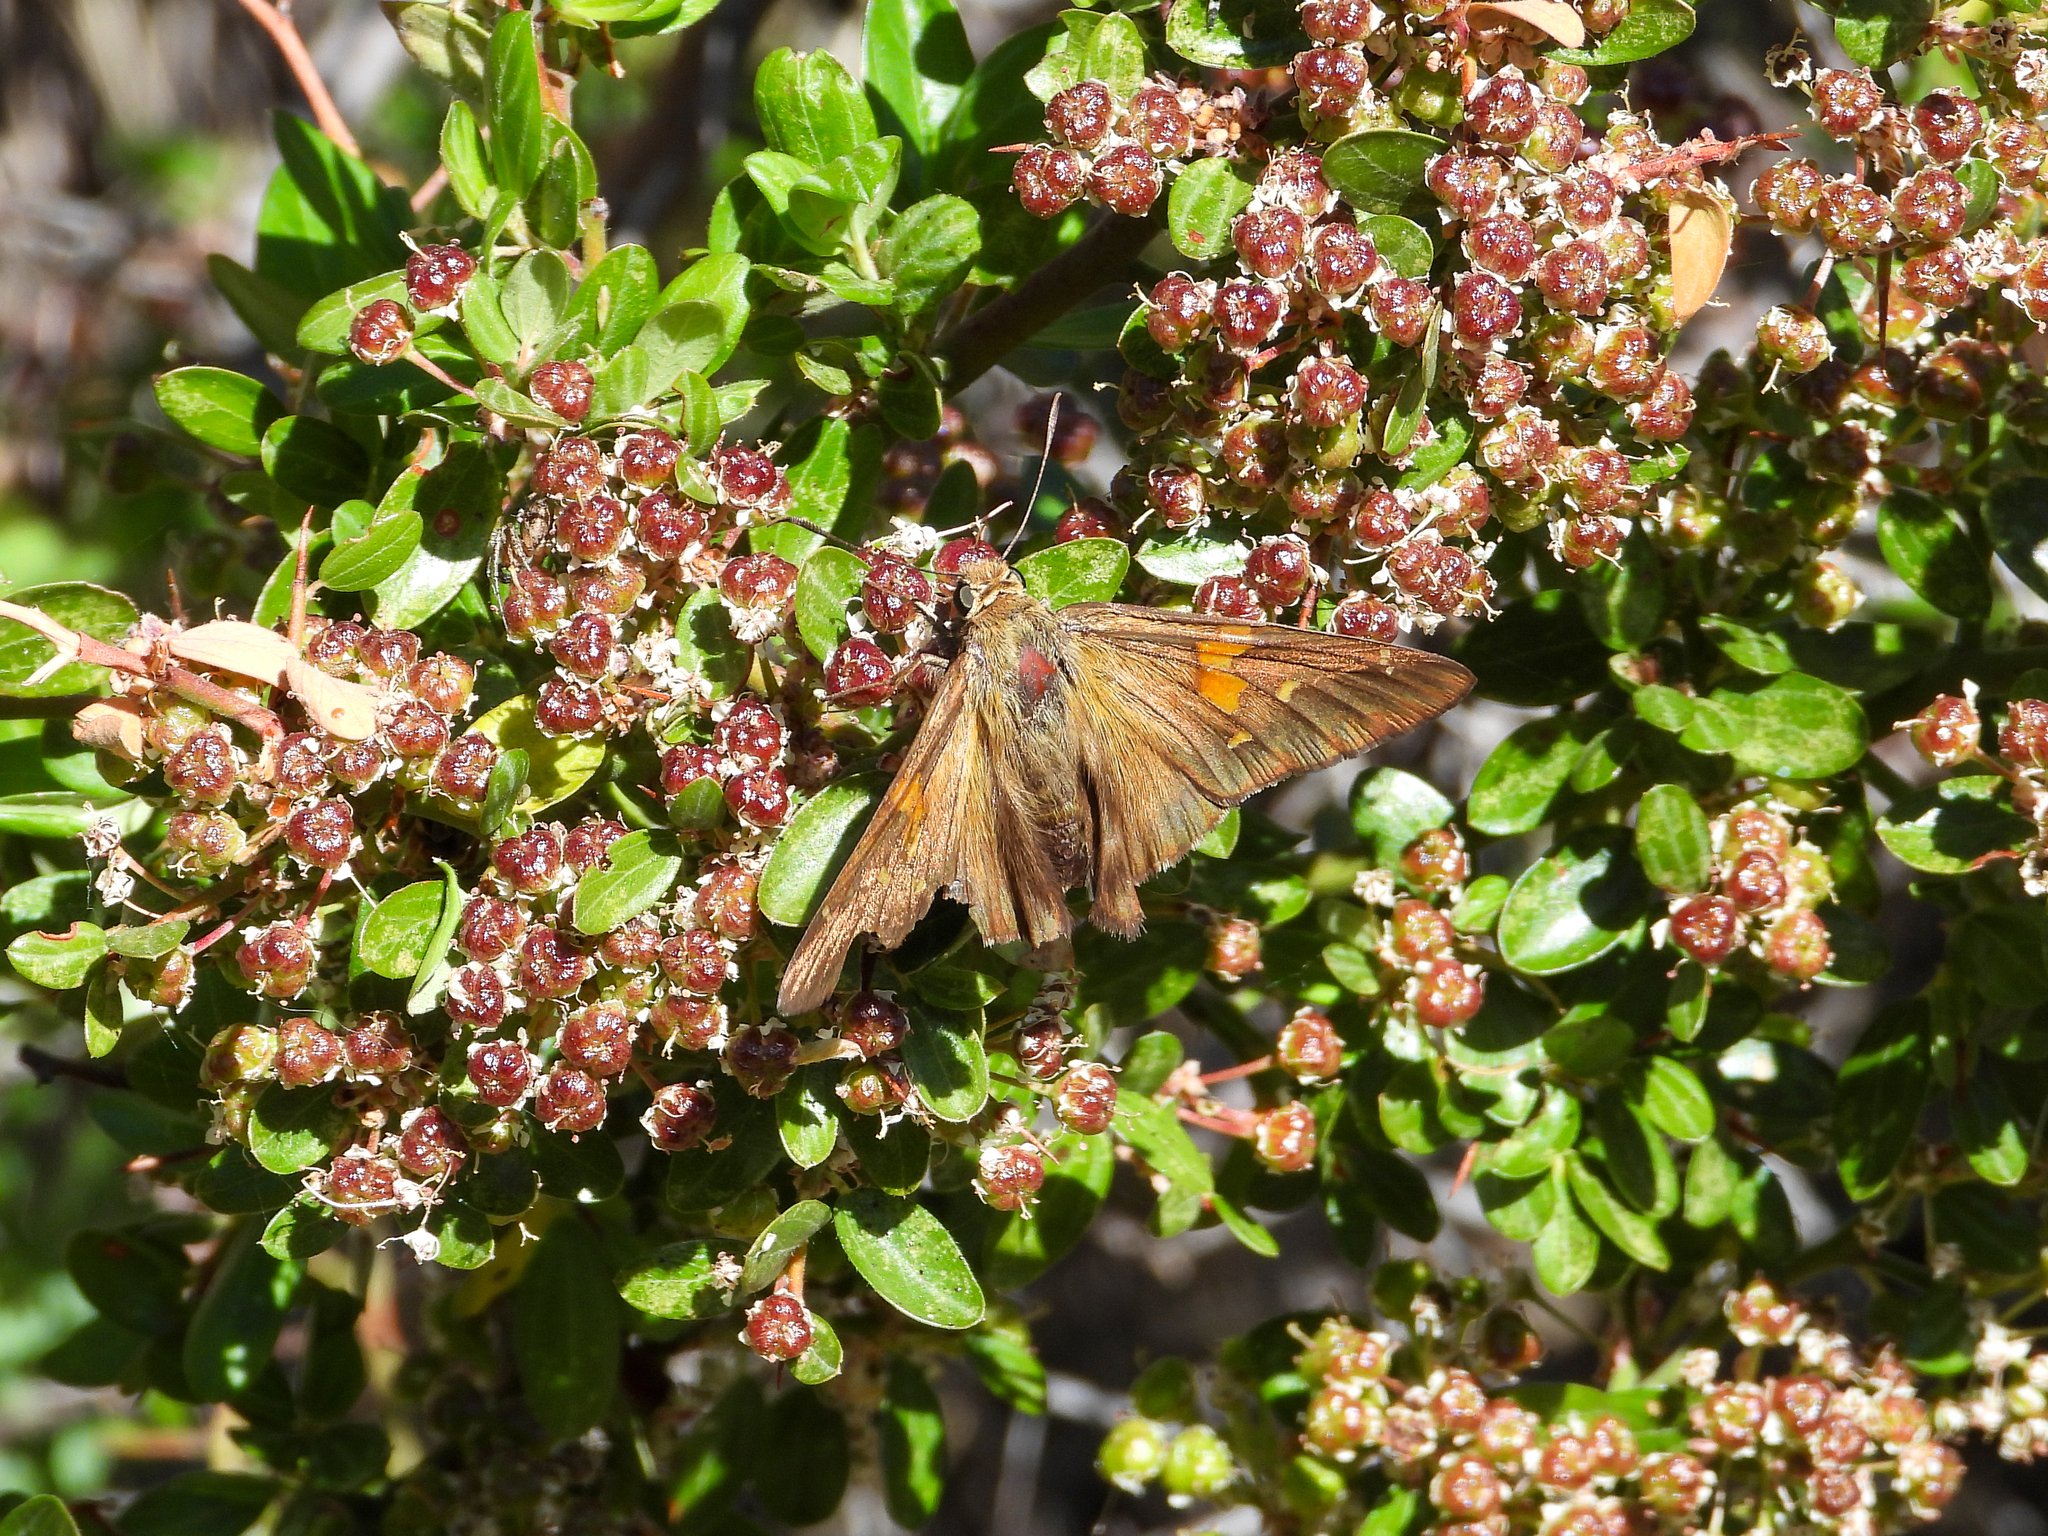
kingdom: Animalia
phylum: Arthropoda
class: Insecta
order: Lepidoptera
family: Hesperiidae
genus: Epargyreus
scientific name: Epargyreus clarus
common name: Silver-spotted skipper
